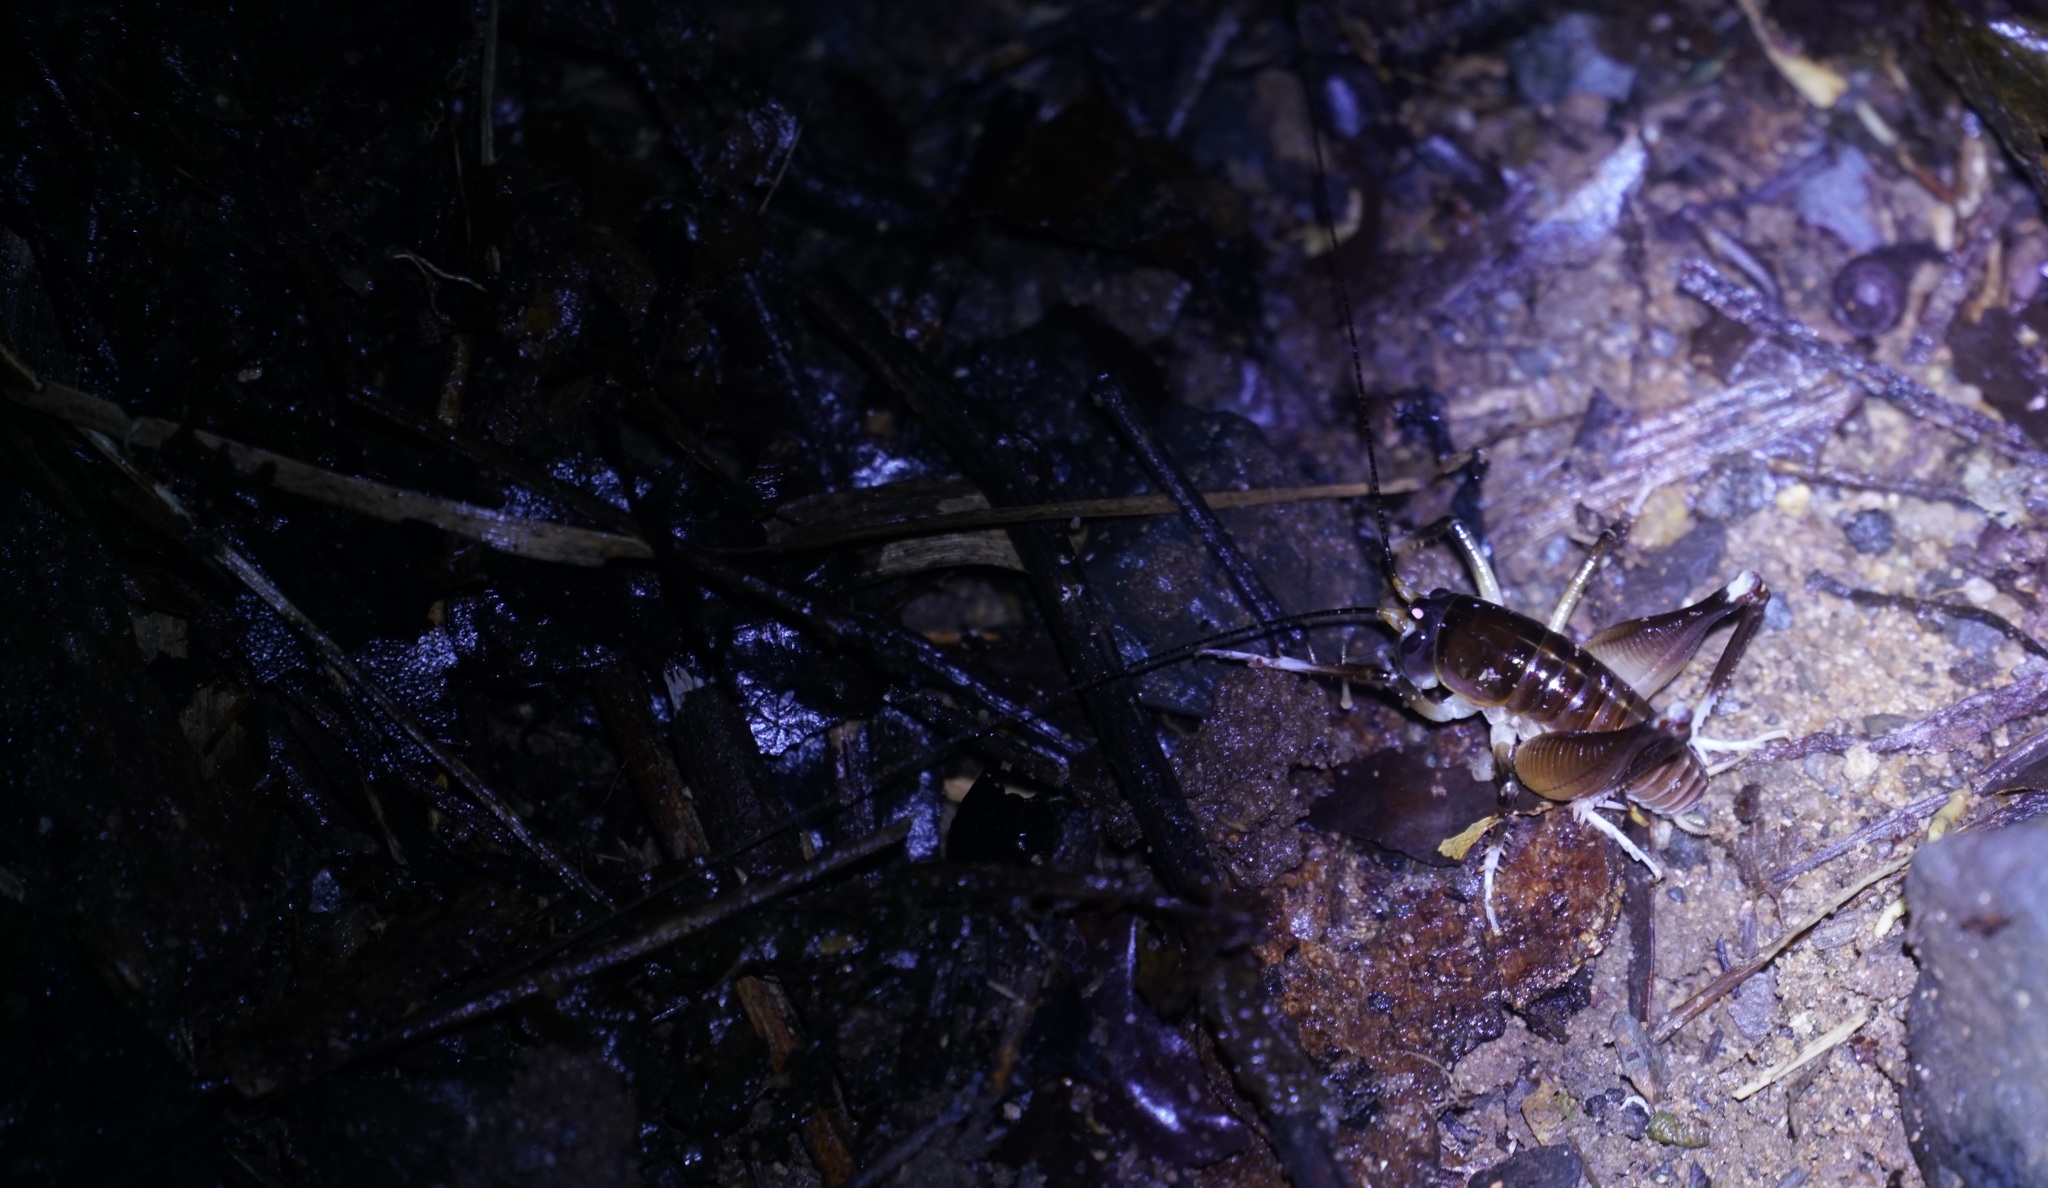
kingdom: Animalia
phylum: Arthropoda
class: Insecta
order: Orthoptera
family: Anostostomatidae
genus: Penalva
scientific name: Penalva flavocalceata
